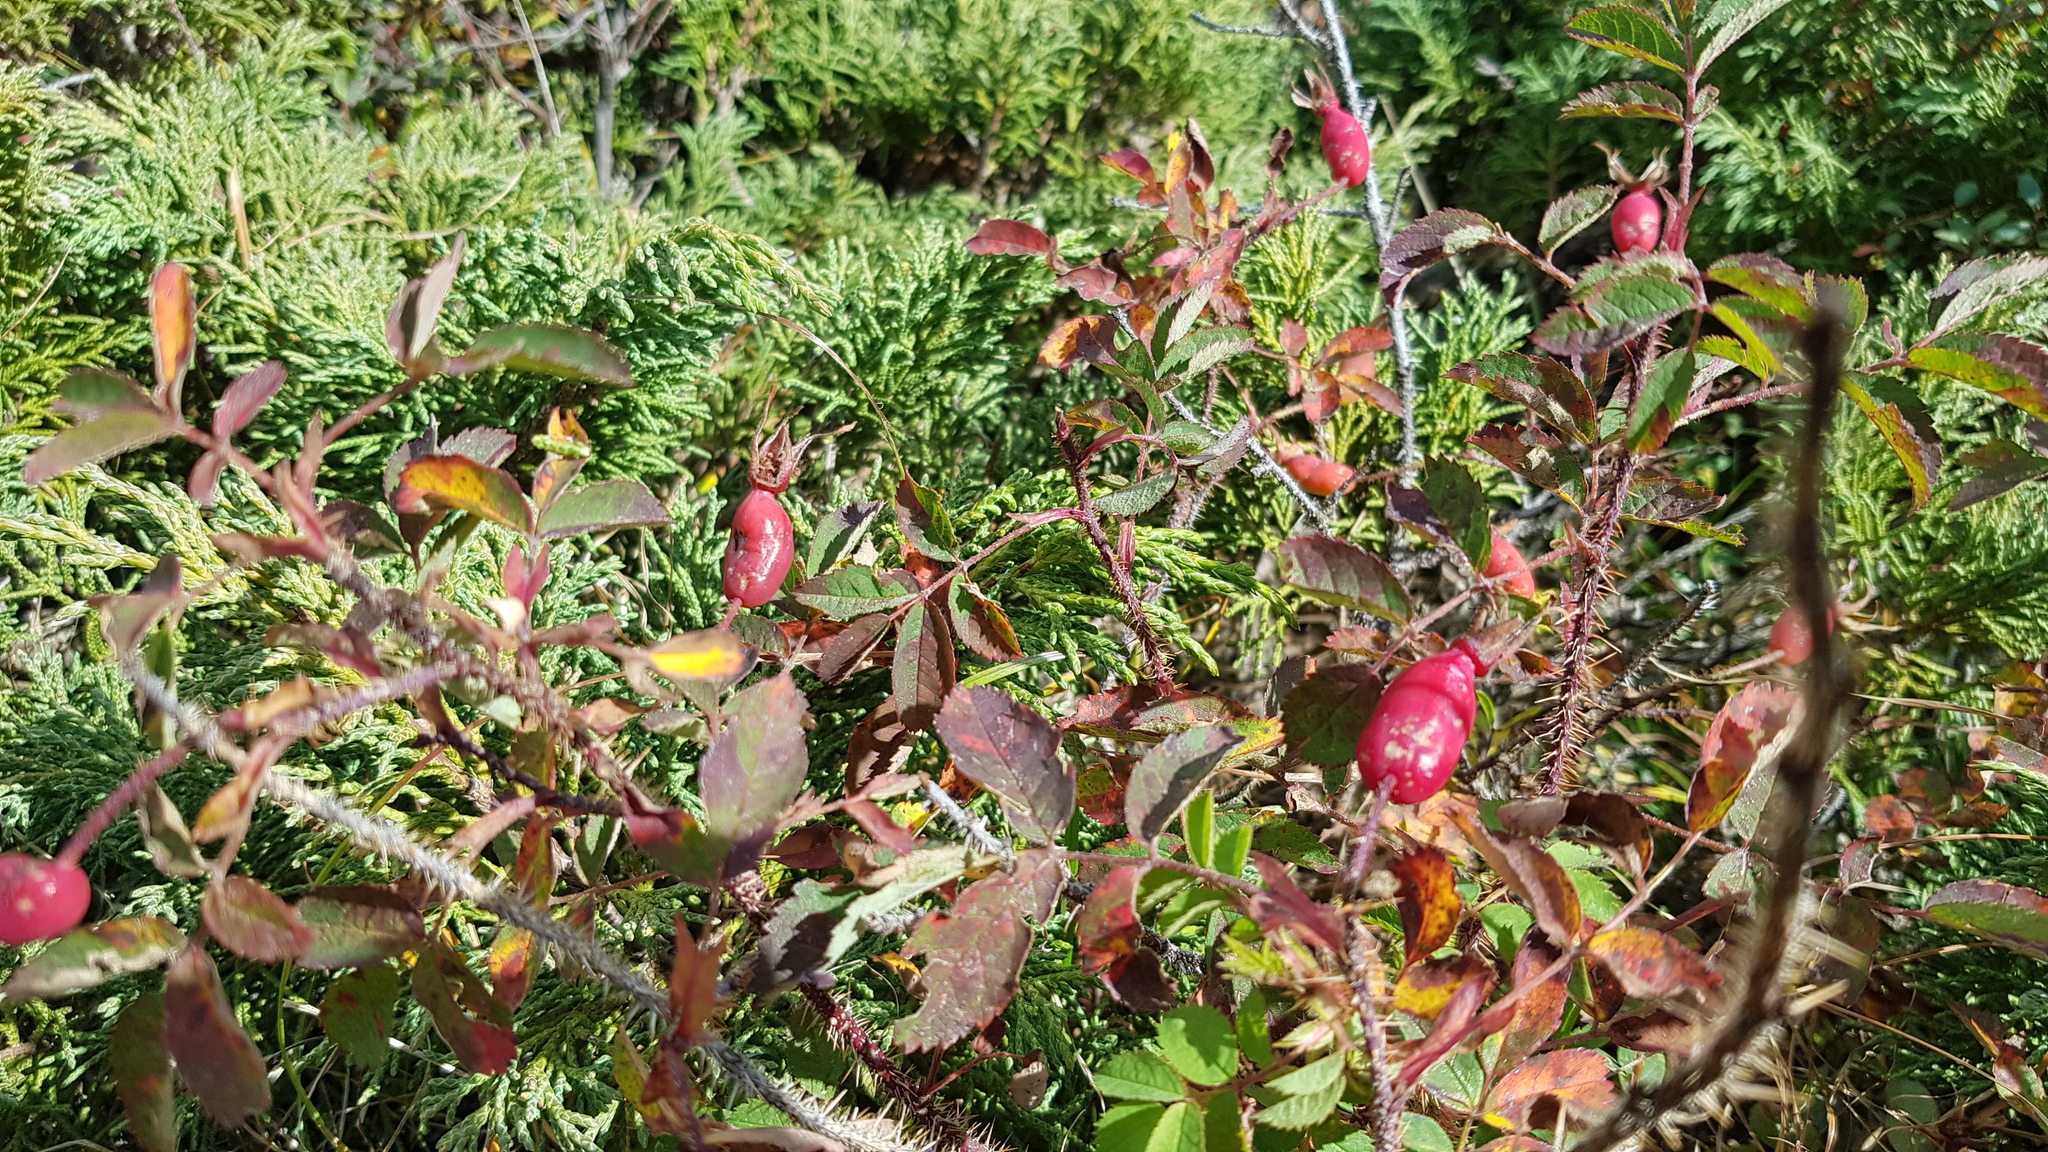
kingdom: Plantae
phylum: Tracheophyta
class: Magnoliopsida
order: Rosales
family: Rosaceae
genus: Rosa
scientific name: Rosa acicularis
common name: Prickly rose
